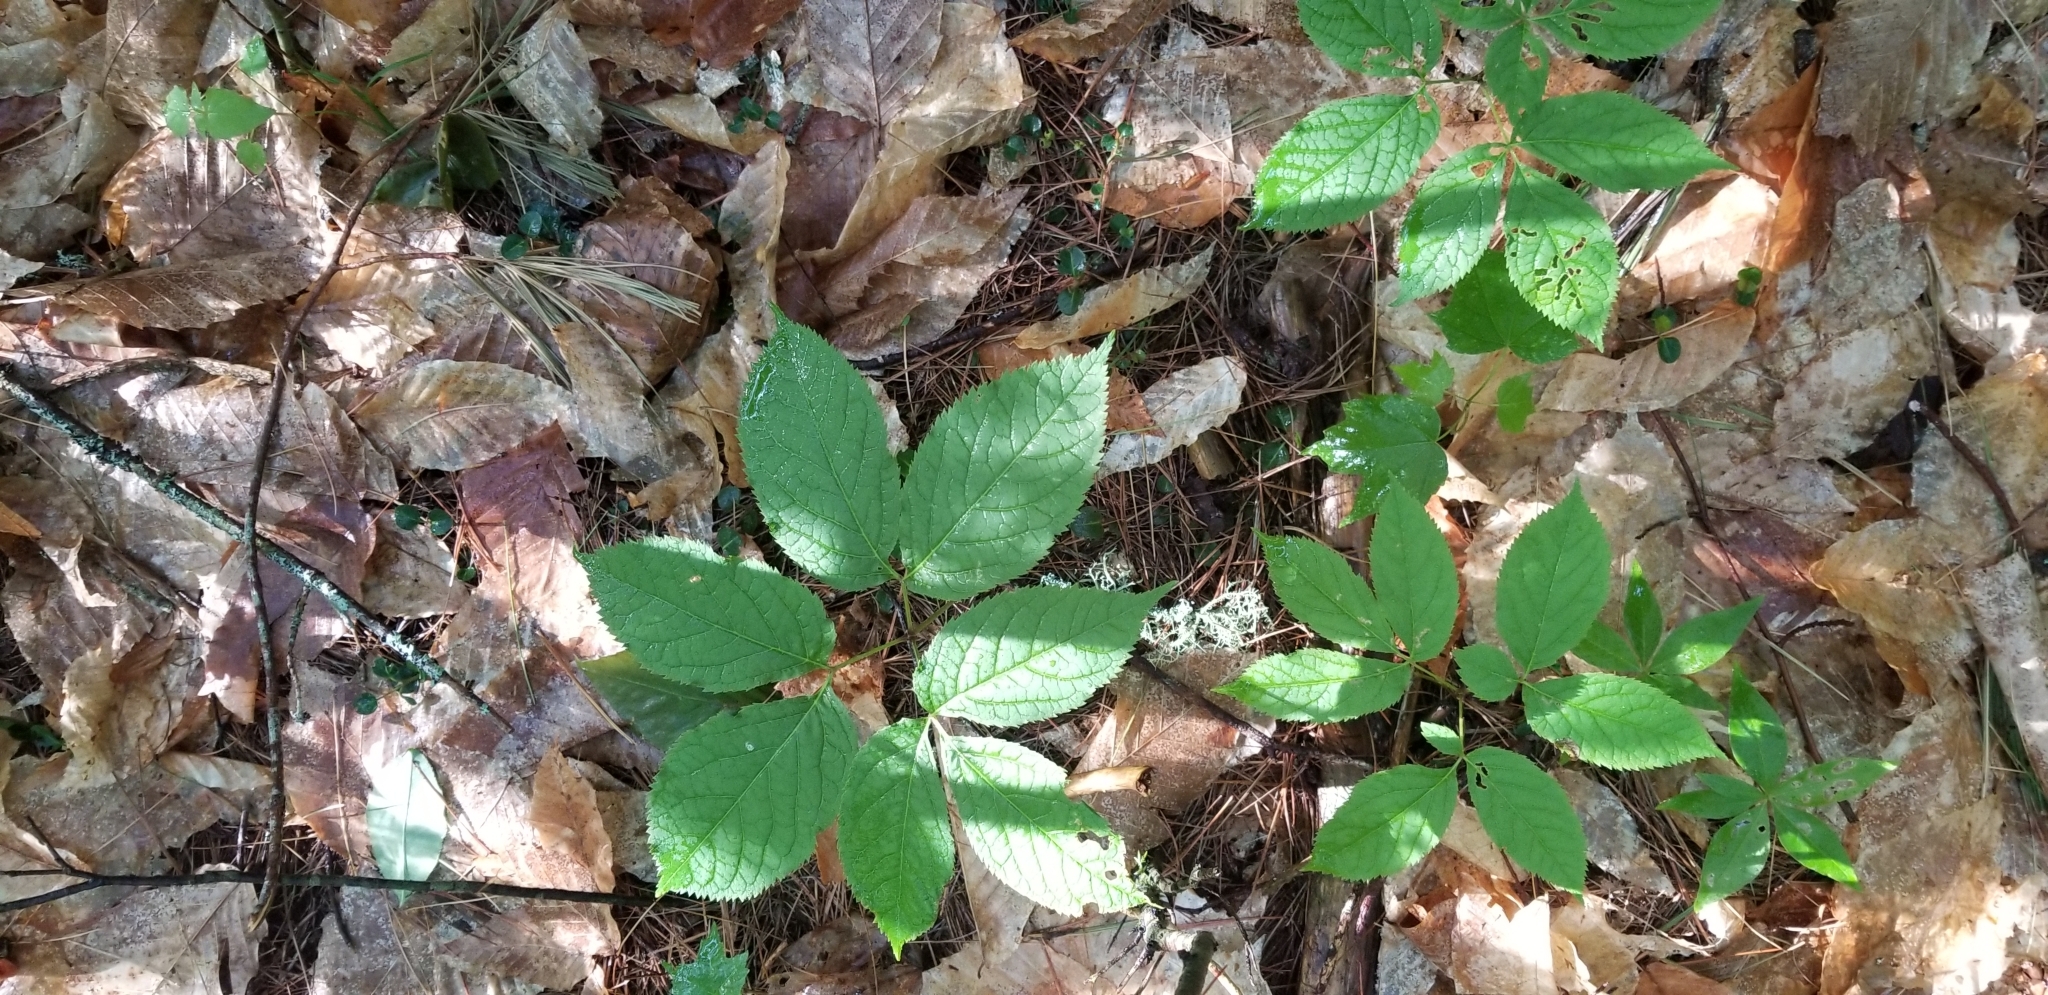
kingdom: Plantae
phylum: Tracheophyta
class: Magnoliopsida
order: Apiales
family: Araliaceae
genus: Aralia
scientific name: Aralia nudicaulis
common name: Wild sarsaparilla
